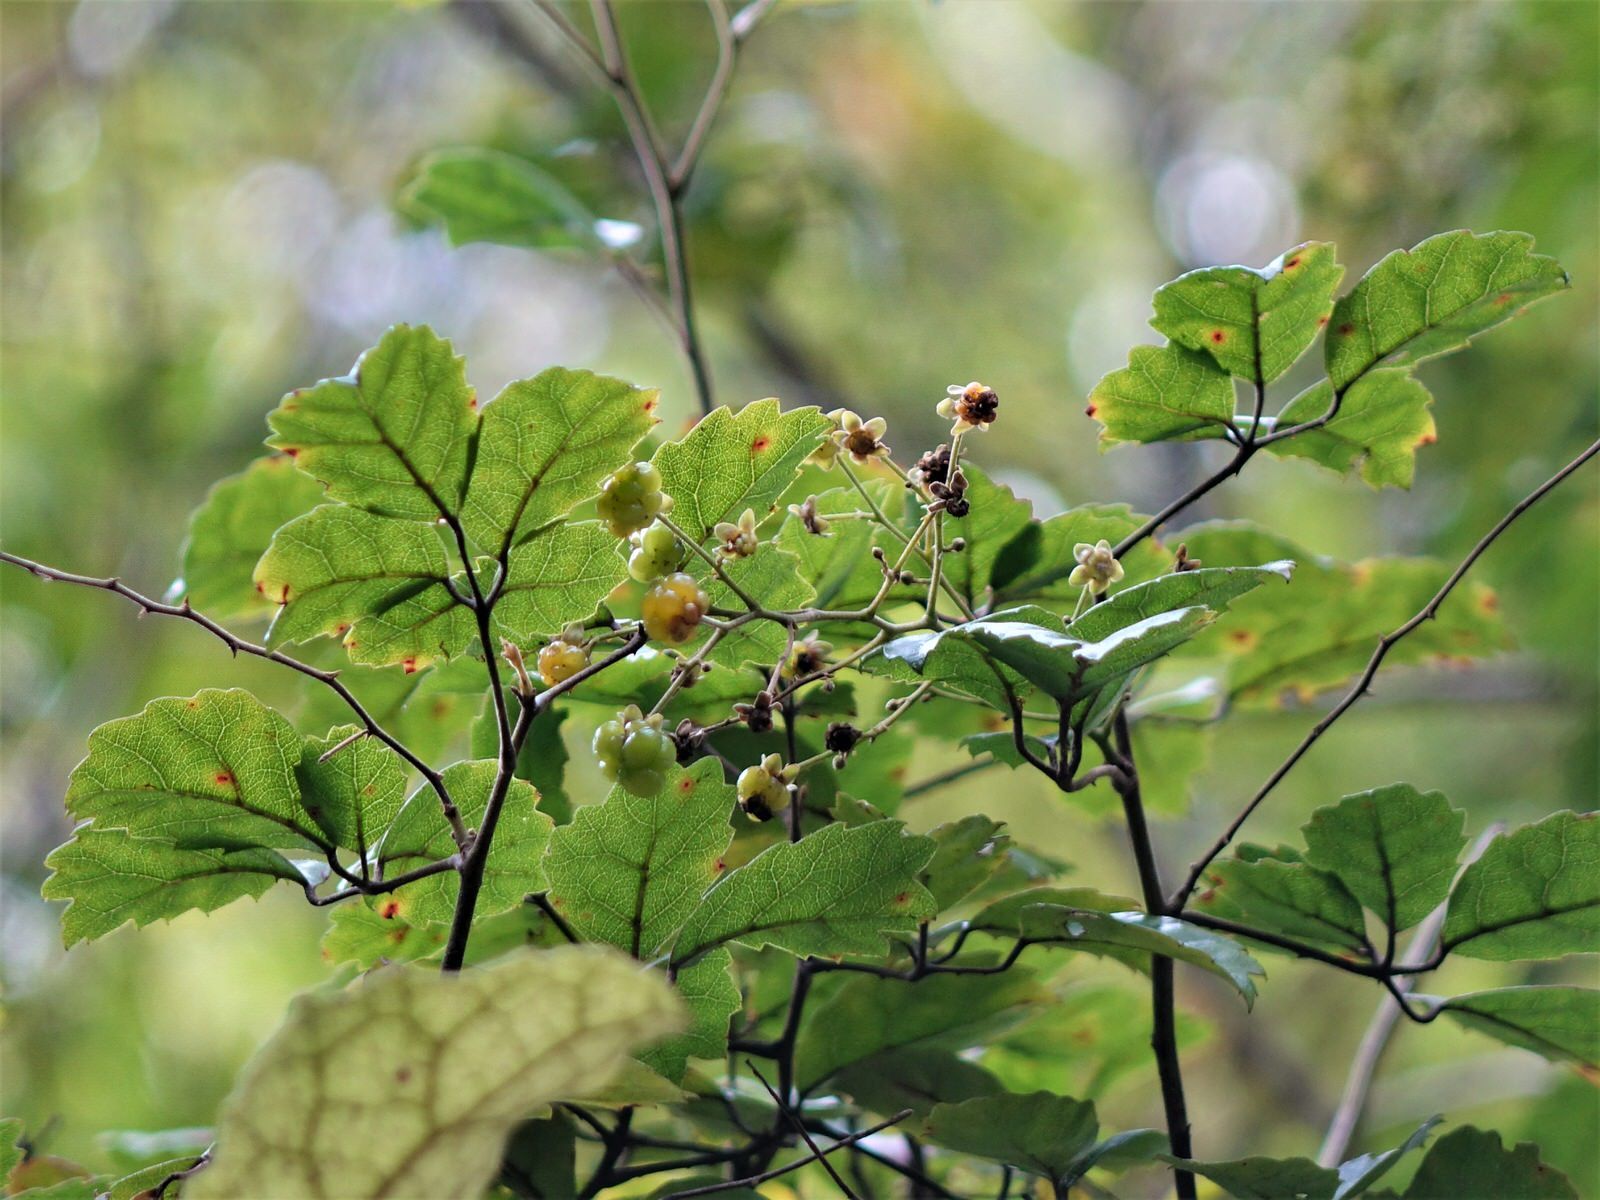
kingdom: Plantae
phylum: Tracheophyta
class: Magnoliopsida
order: Rosales
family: Rosaceae
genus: Rubus
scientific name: Rubus australis
